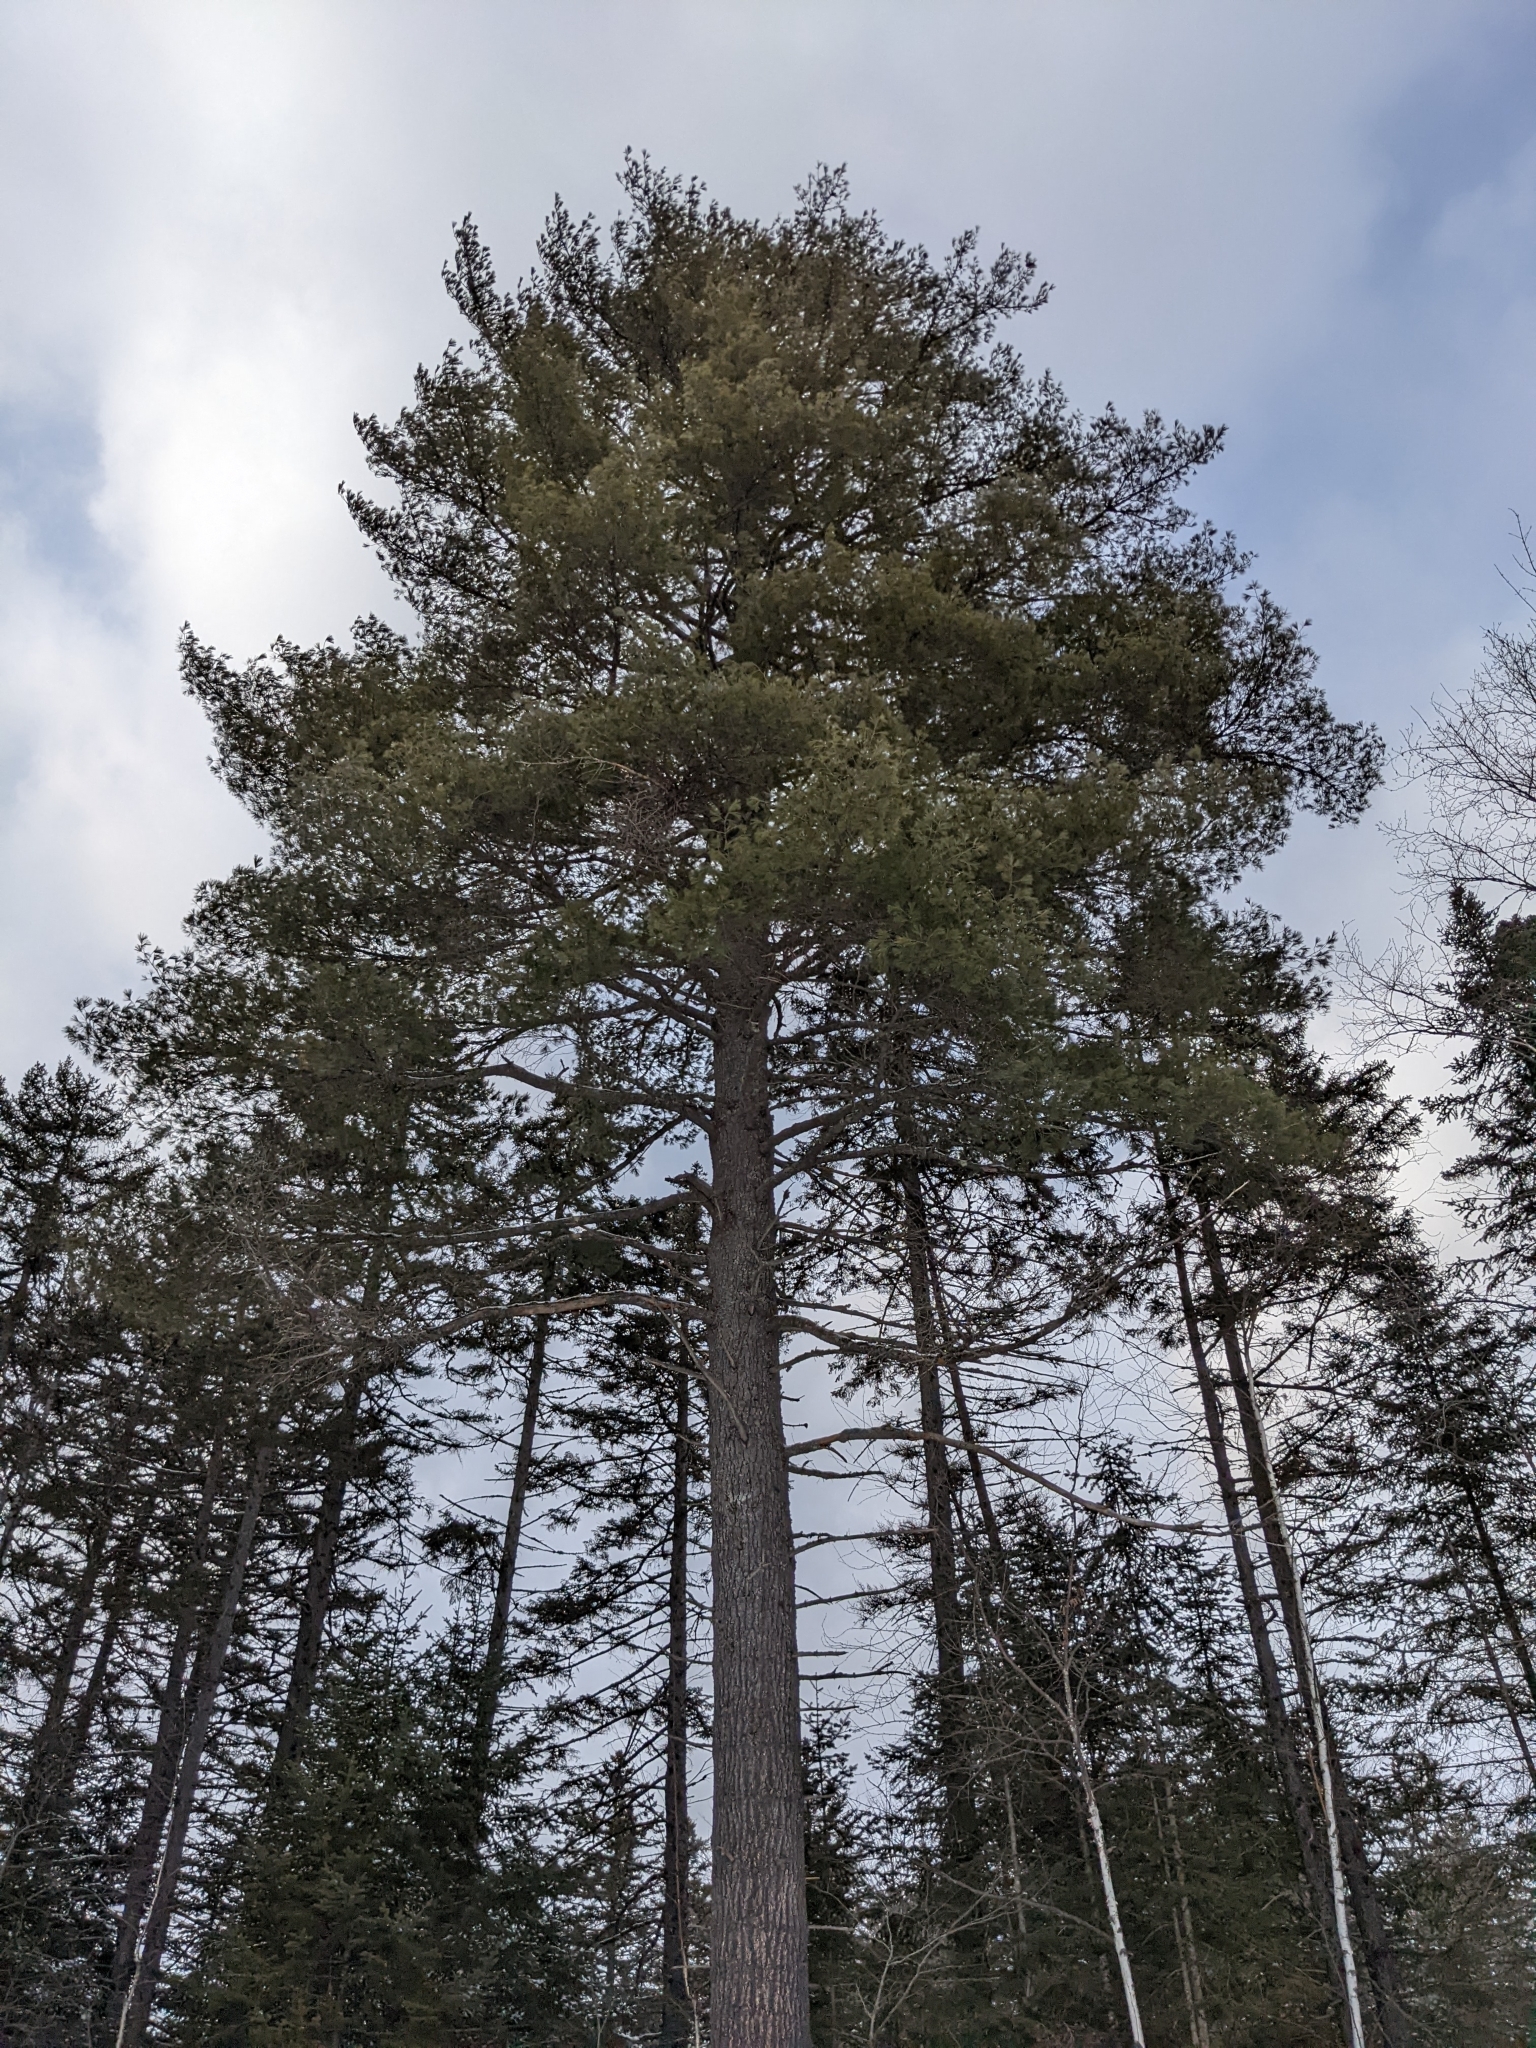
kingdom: Plantae
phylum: Tracheophyta
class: Pinopsida
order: Pinales
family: Pinaceae
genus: Pinus
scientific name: Pinus strobus
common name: Weymouth pine
